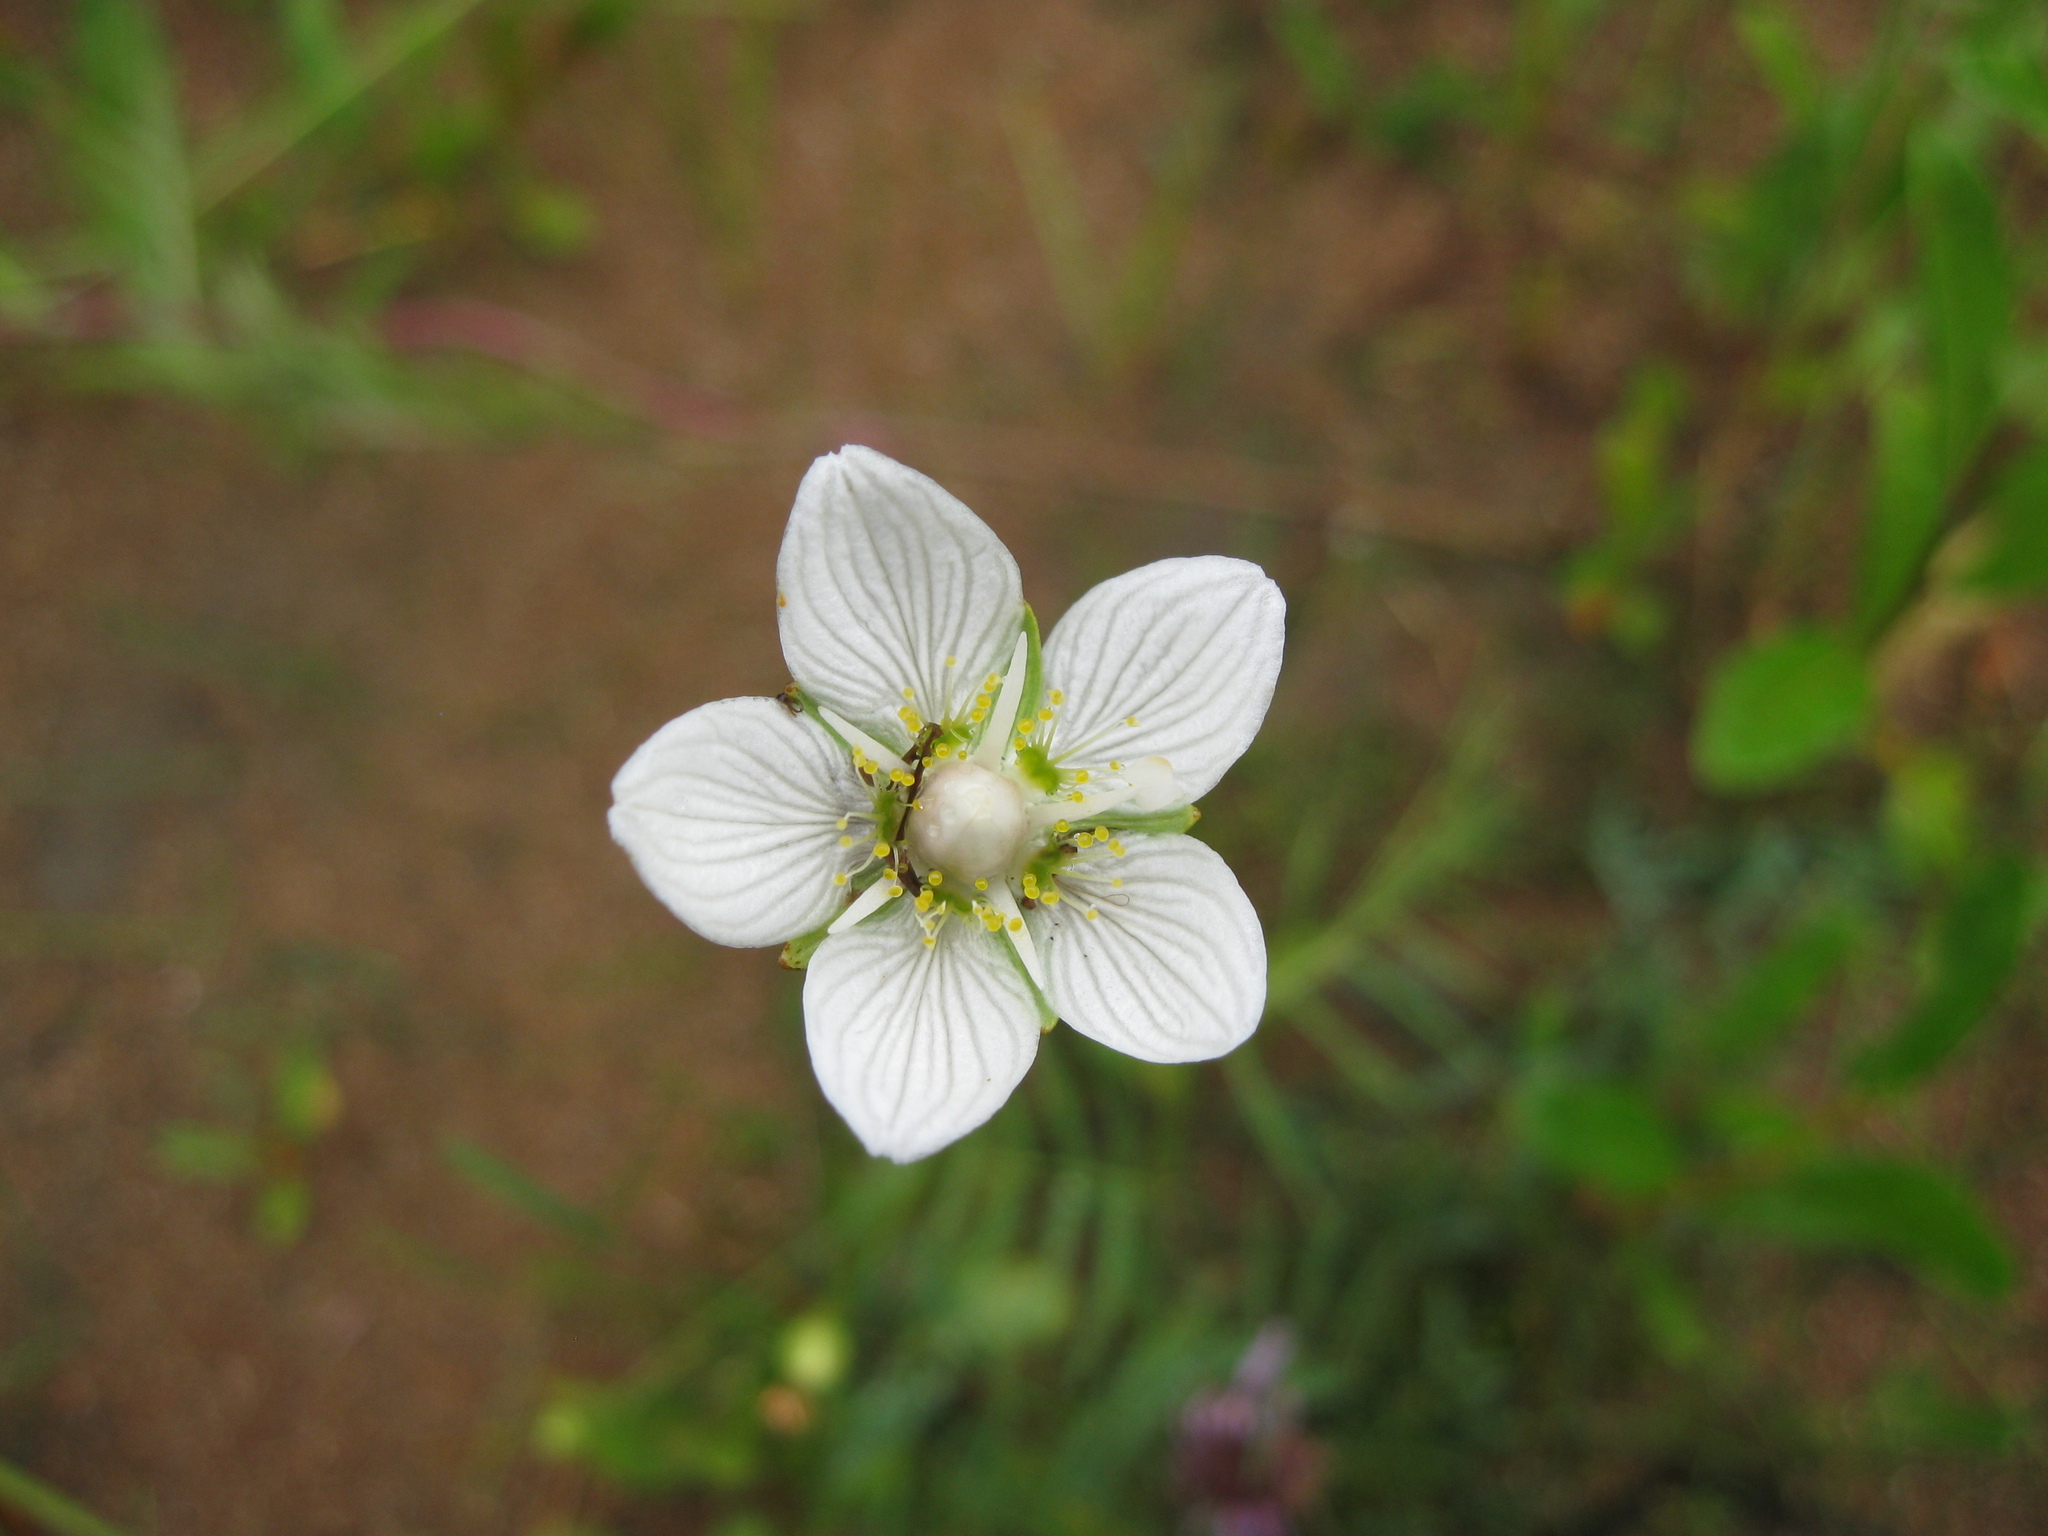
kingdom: Plantae
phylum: Tracheophyta
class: Magnoliopsida
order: Celastrales
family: Parnassiaceae
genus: Parnassia
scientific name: Parnassia palustris
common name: Grass-of-parnassus
